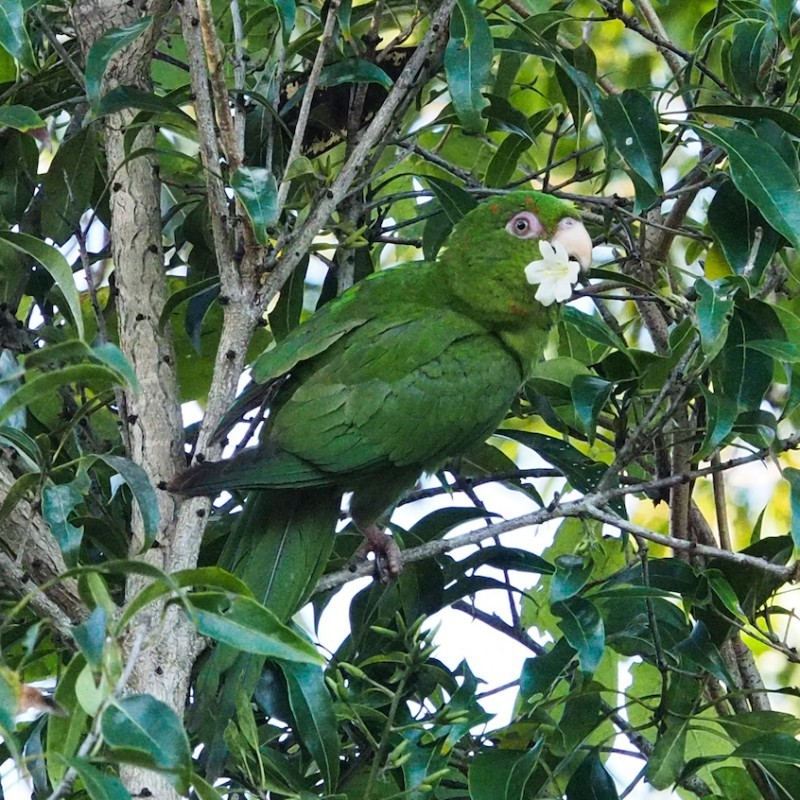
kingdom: Animalia
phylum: Chordata
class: Aves
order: Psittaciformes
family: Psittacidae
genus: Aratinga
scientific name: Aratinga euops
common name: Cuban parakeet
